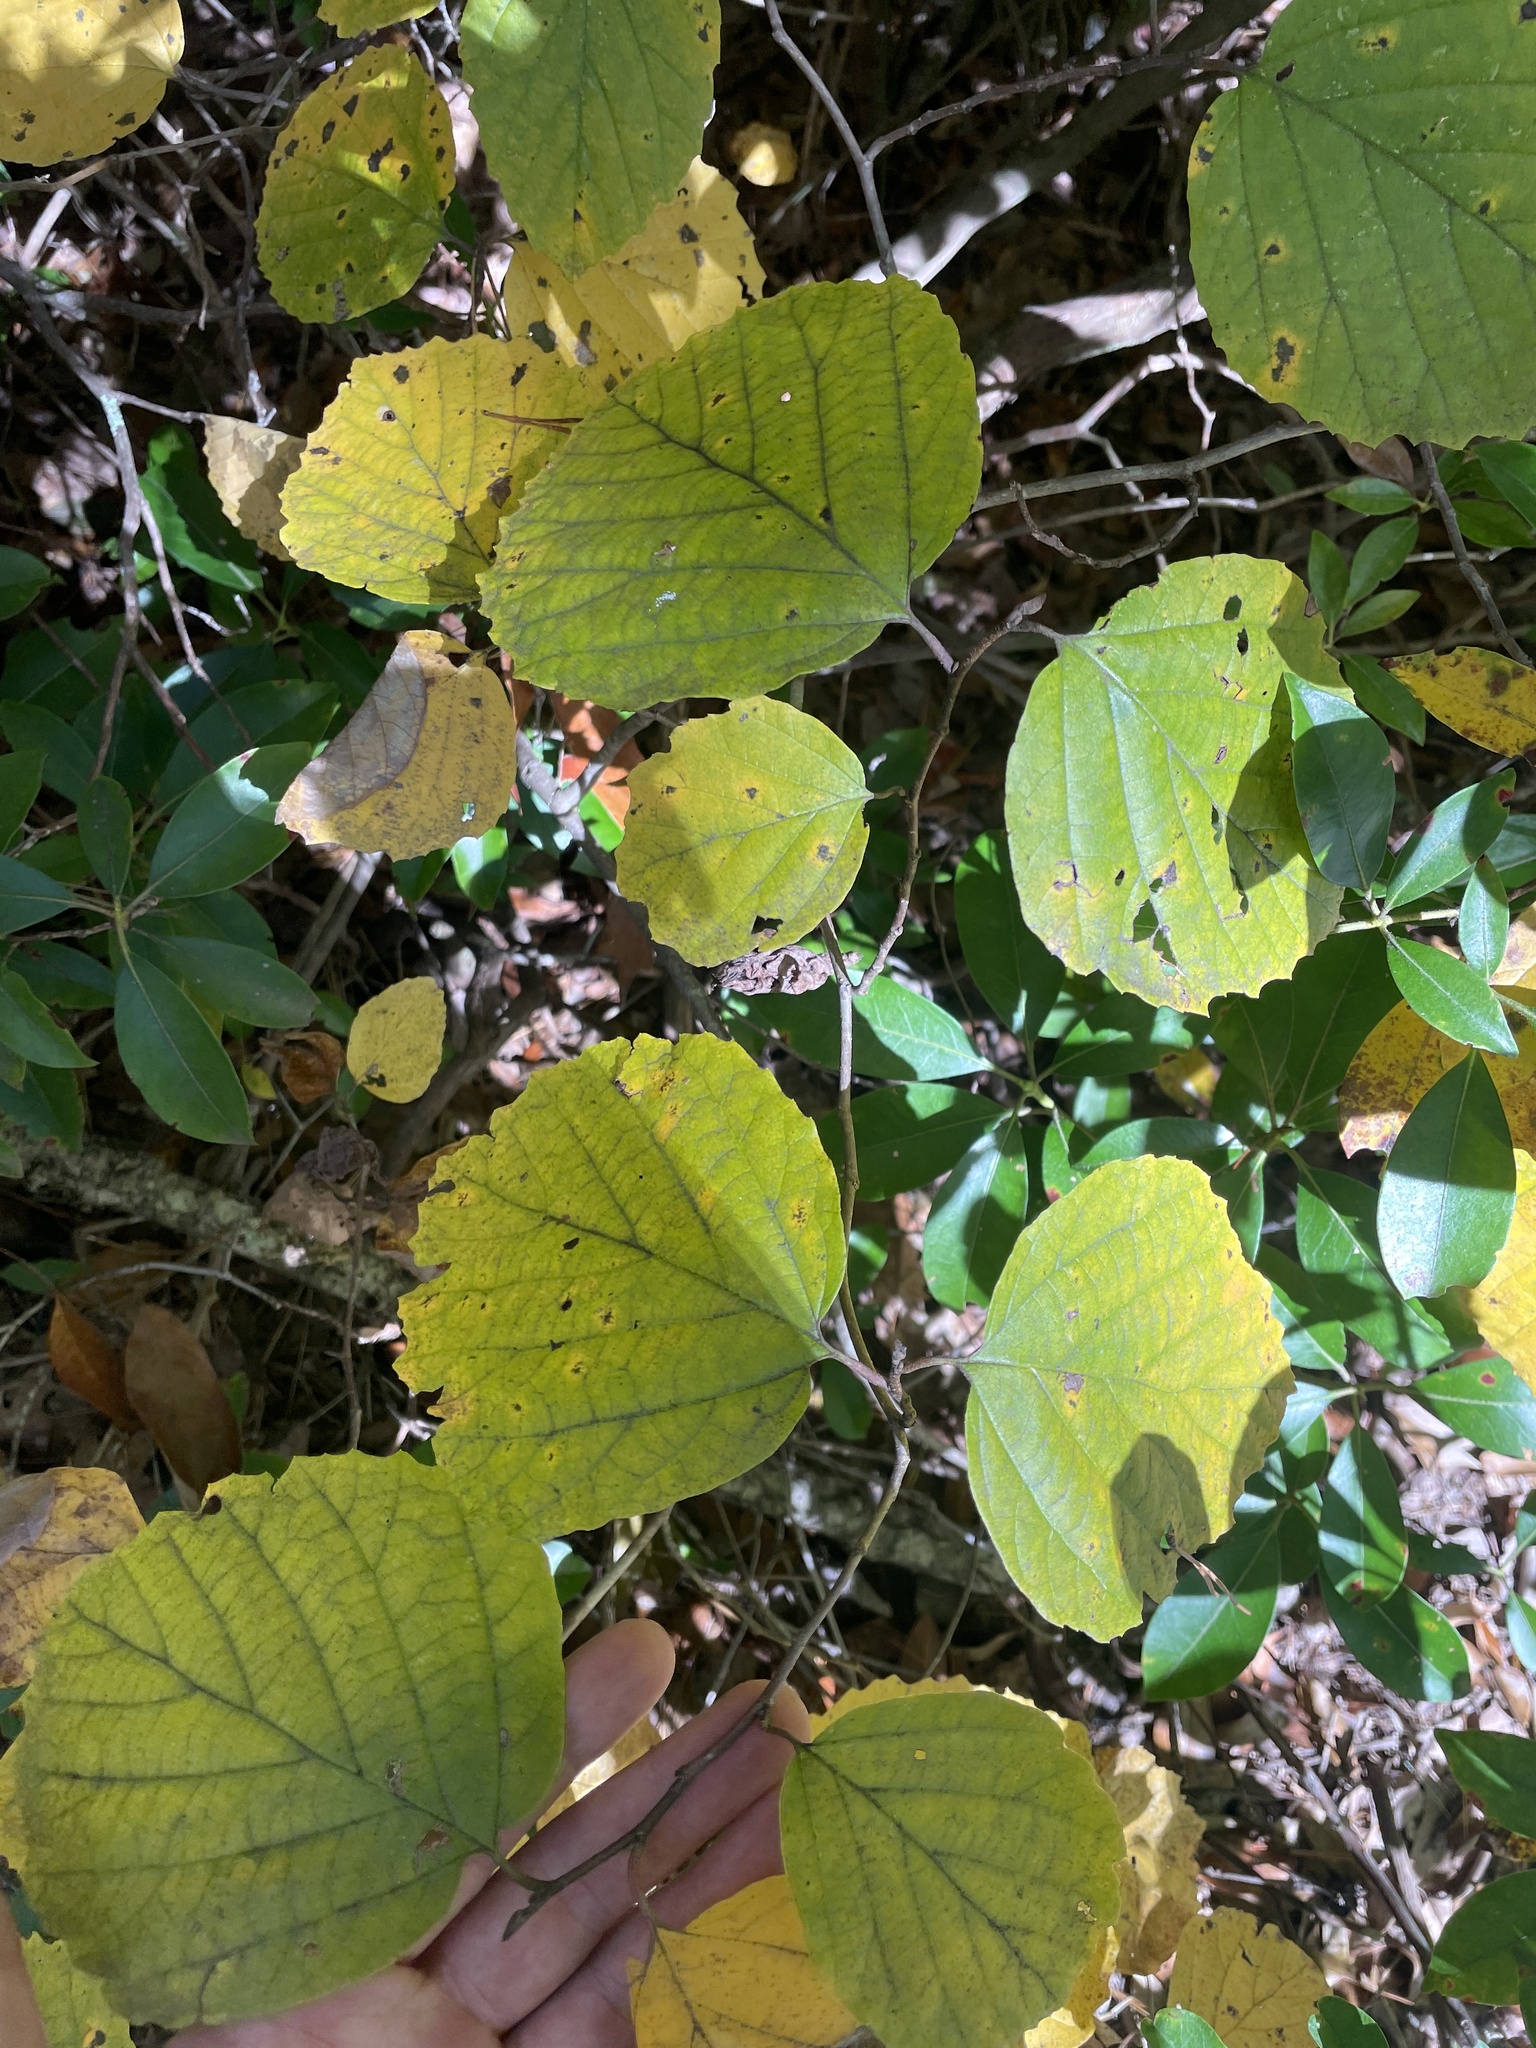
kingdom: Plantae
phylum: Tracheophyta
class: Magnoliopsida
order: Saxifragales
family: Hamamelidaceae
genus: Fothergilla
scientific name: Fothergilla latifolia
